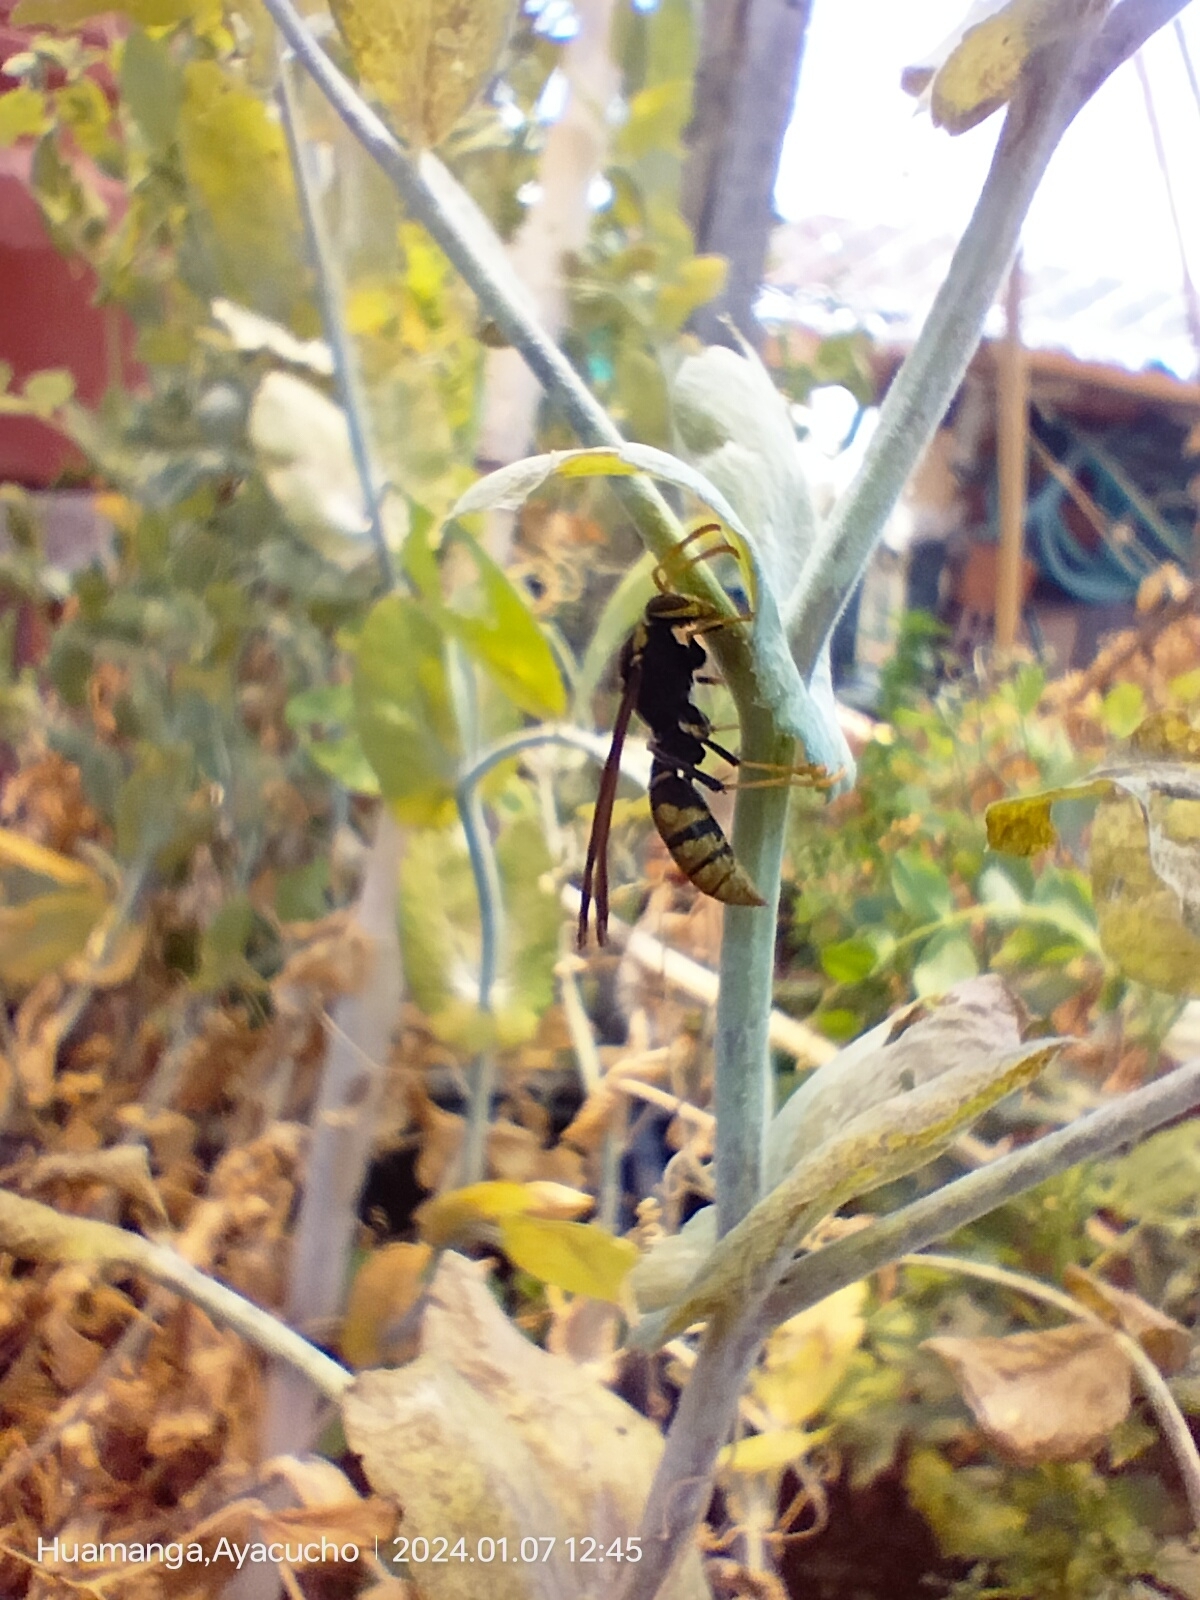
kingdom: Animalia
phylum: Arthropoda
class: Insecta
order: Hymenoptera
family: Eumenidae
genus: Polistes
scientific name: Polistes xanthogaster
